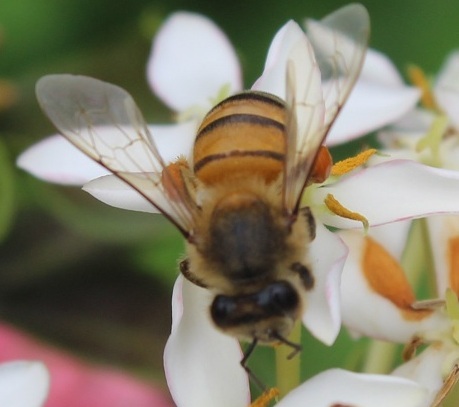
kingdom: Animalia
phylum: Arthropoda
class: Insecta
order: Hymenoptera
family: Apidae
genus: Apis
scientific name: Apis mellifera
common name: Honey bee
